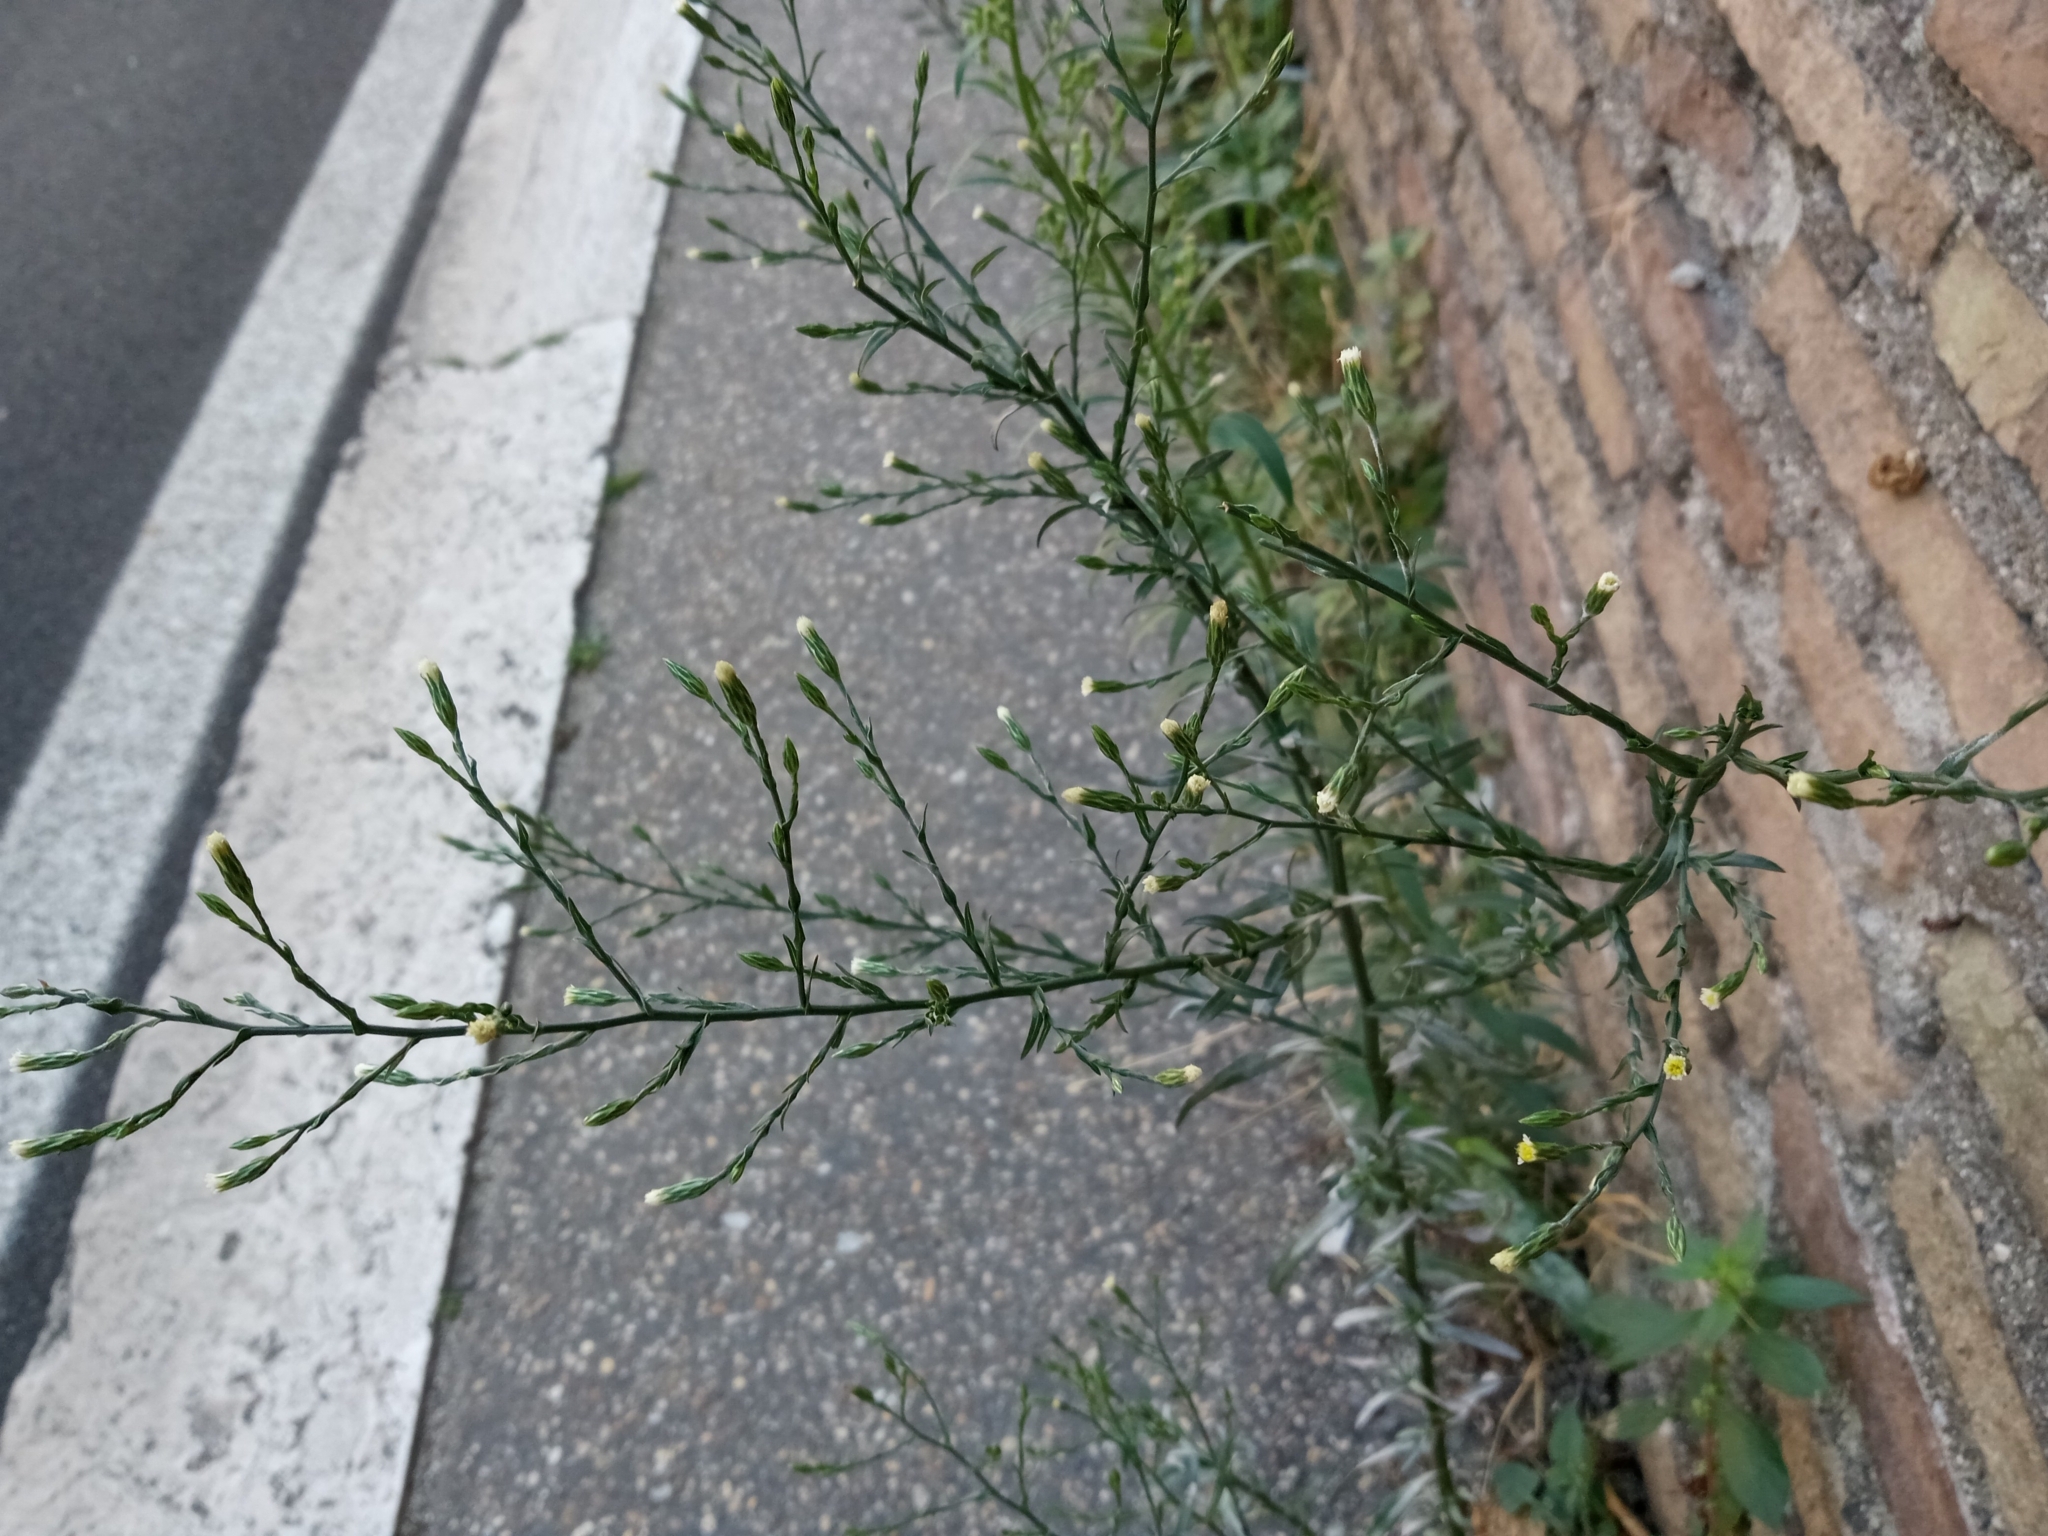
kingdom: Plantae
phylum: Tracheophyta
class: Magnoliopsida
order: Asterales
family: Asteraceae
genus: Symphyotrichum
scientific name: Symphyotrichum subulatum
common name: Annual saltmarsh aster
